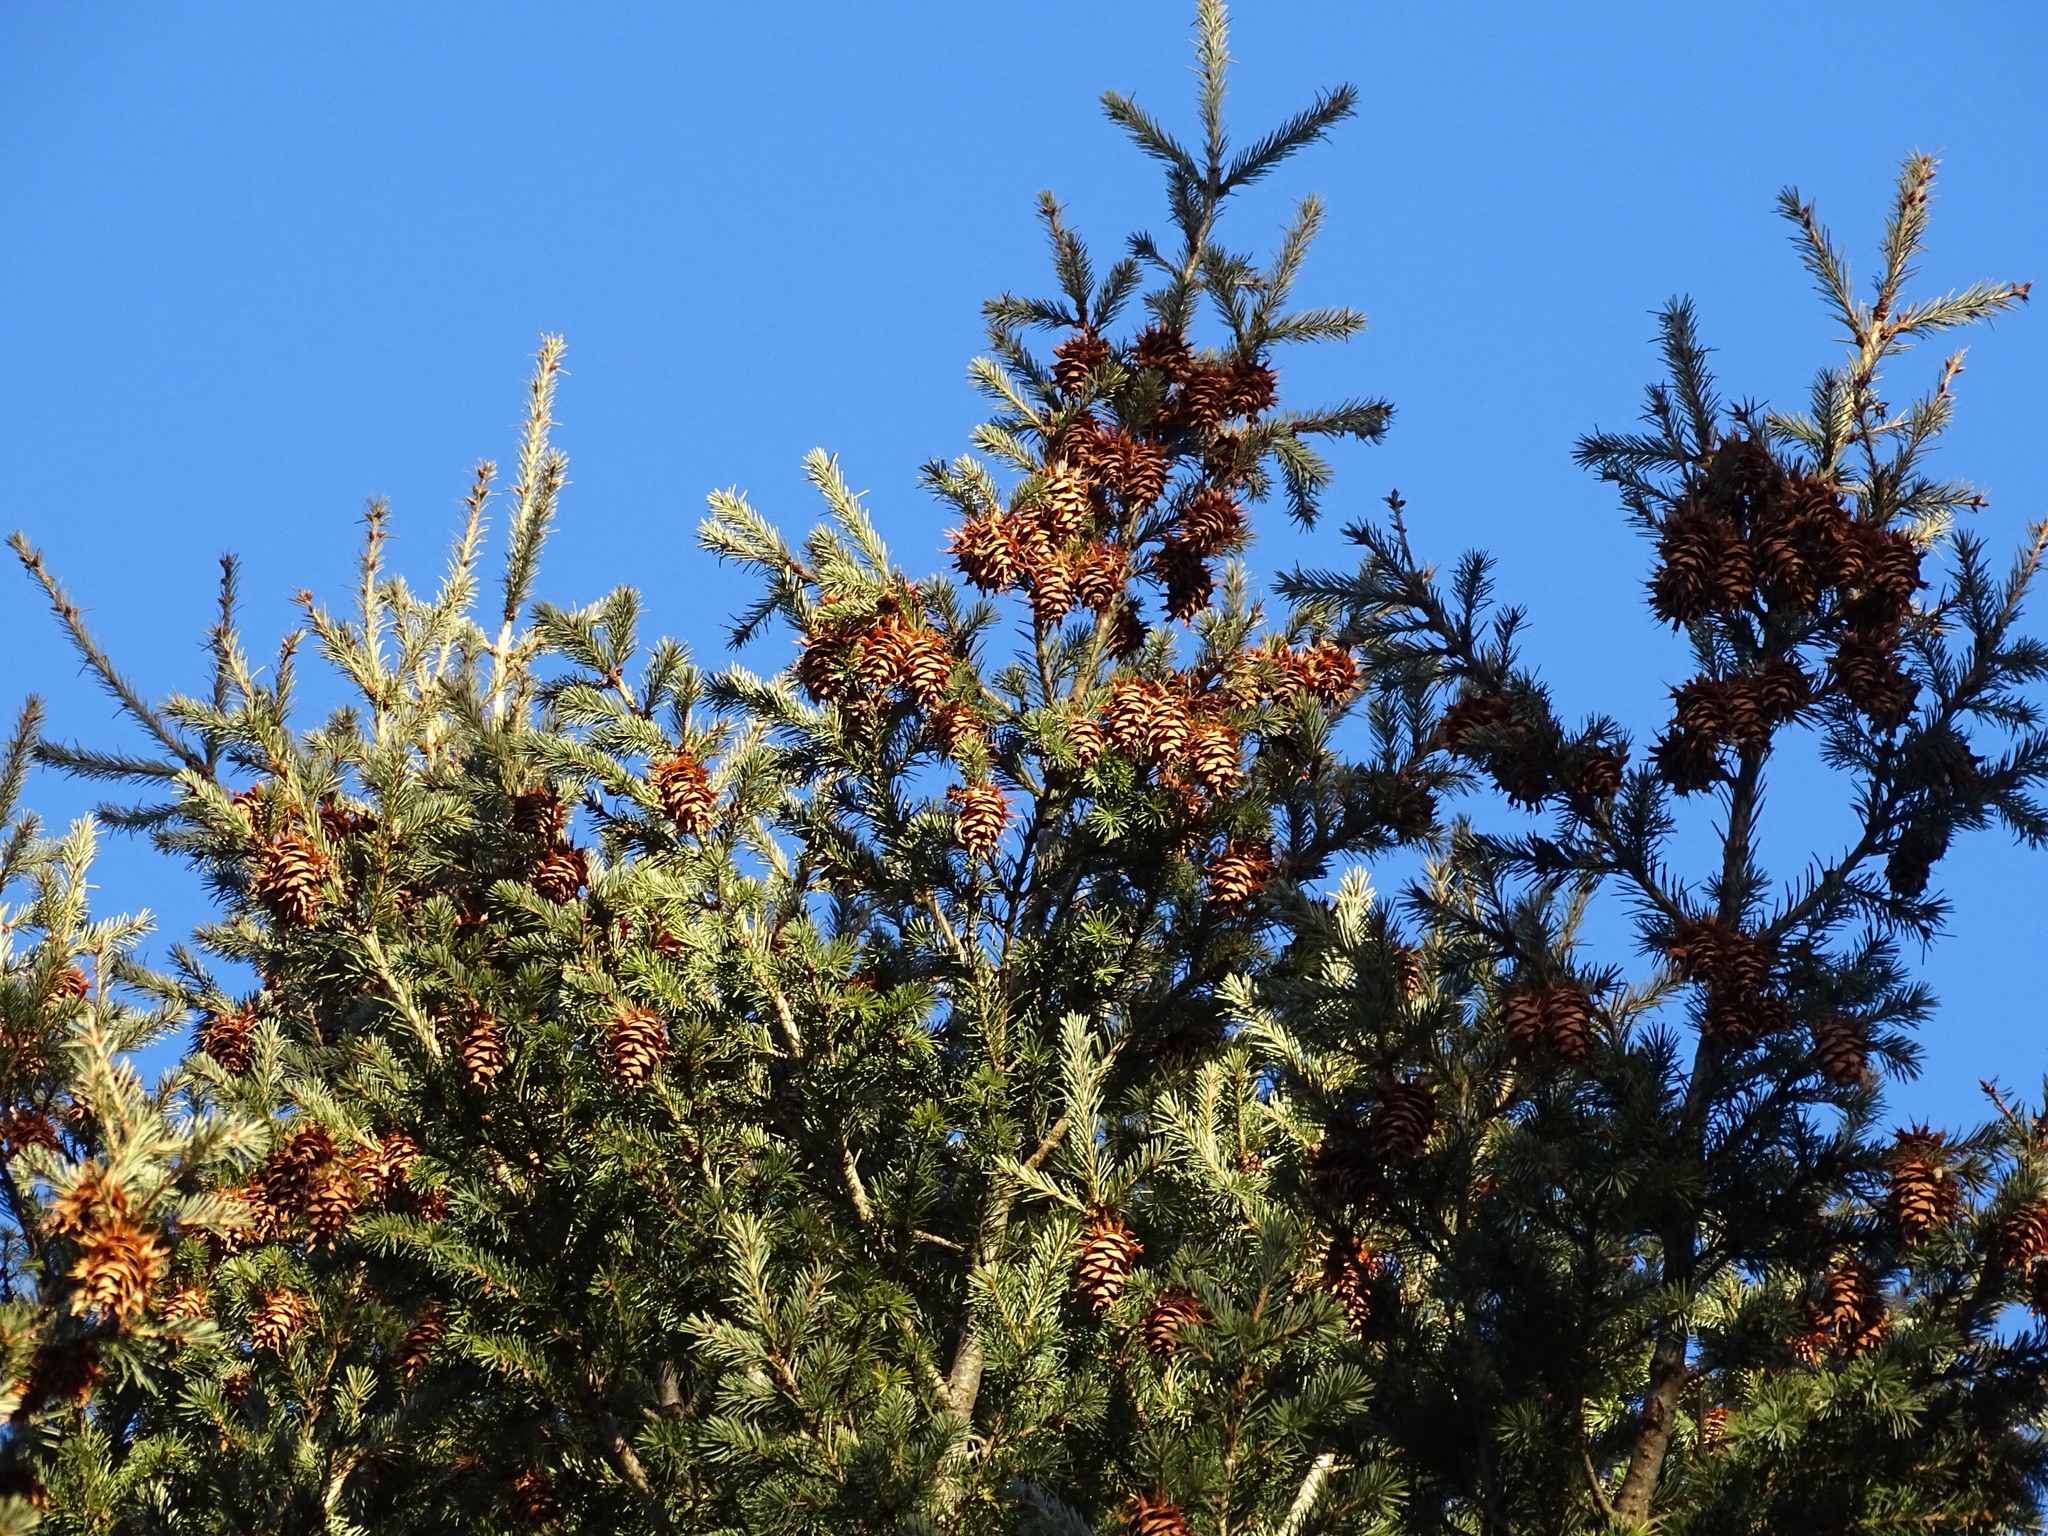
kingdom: Plantae
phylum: Tracheophyta
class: Pinopsida
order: Pinales
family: Pinaceae
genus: Pseudotsuga
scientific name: Pseudotsuga menziesii
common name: Douglas fir
